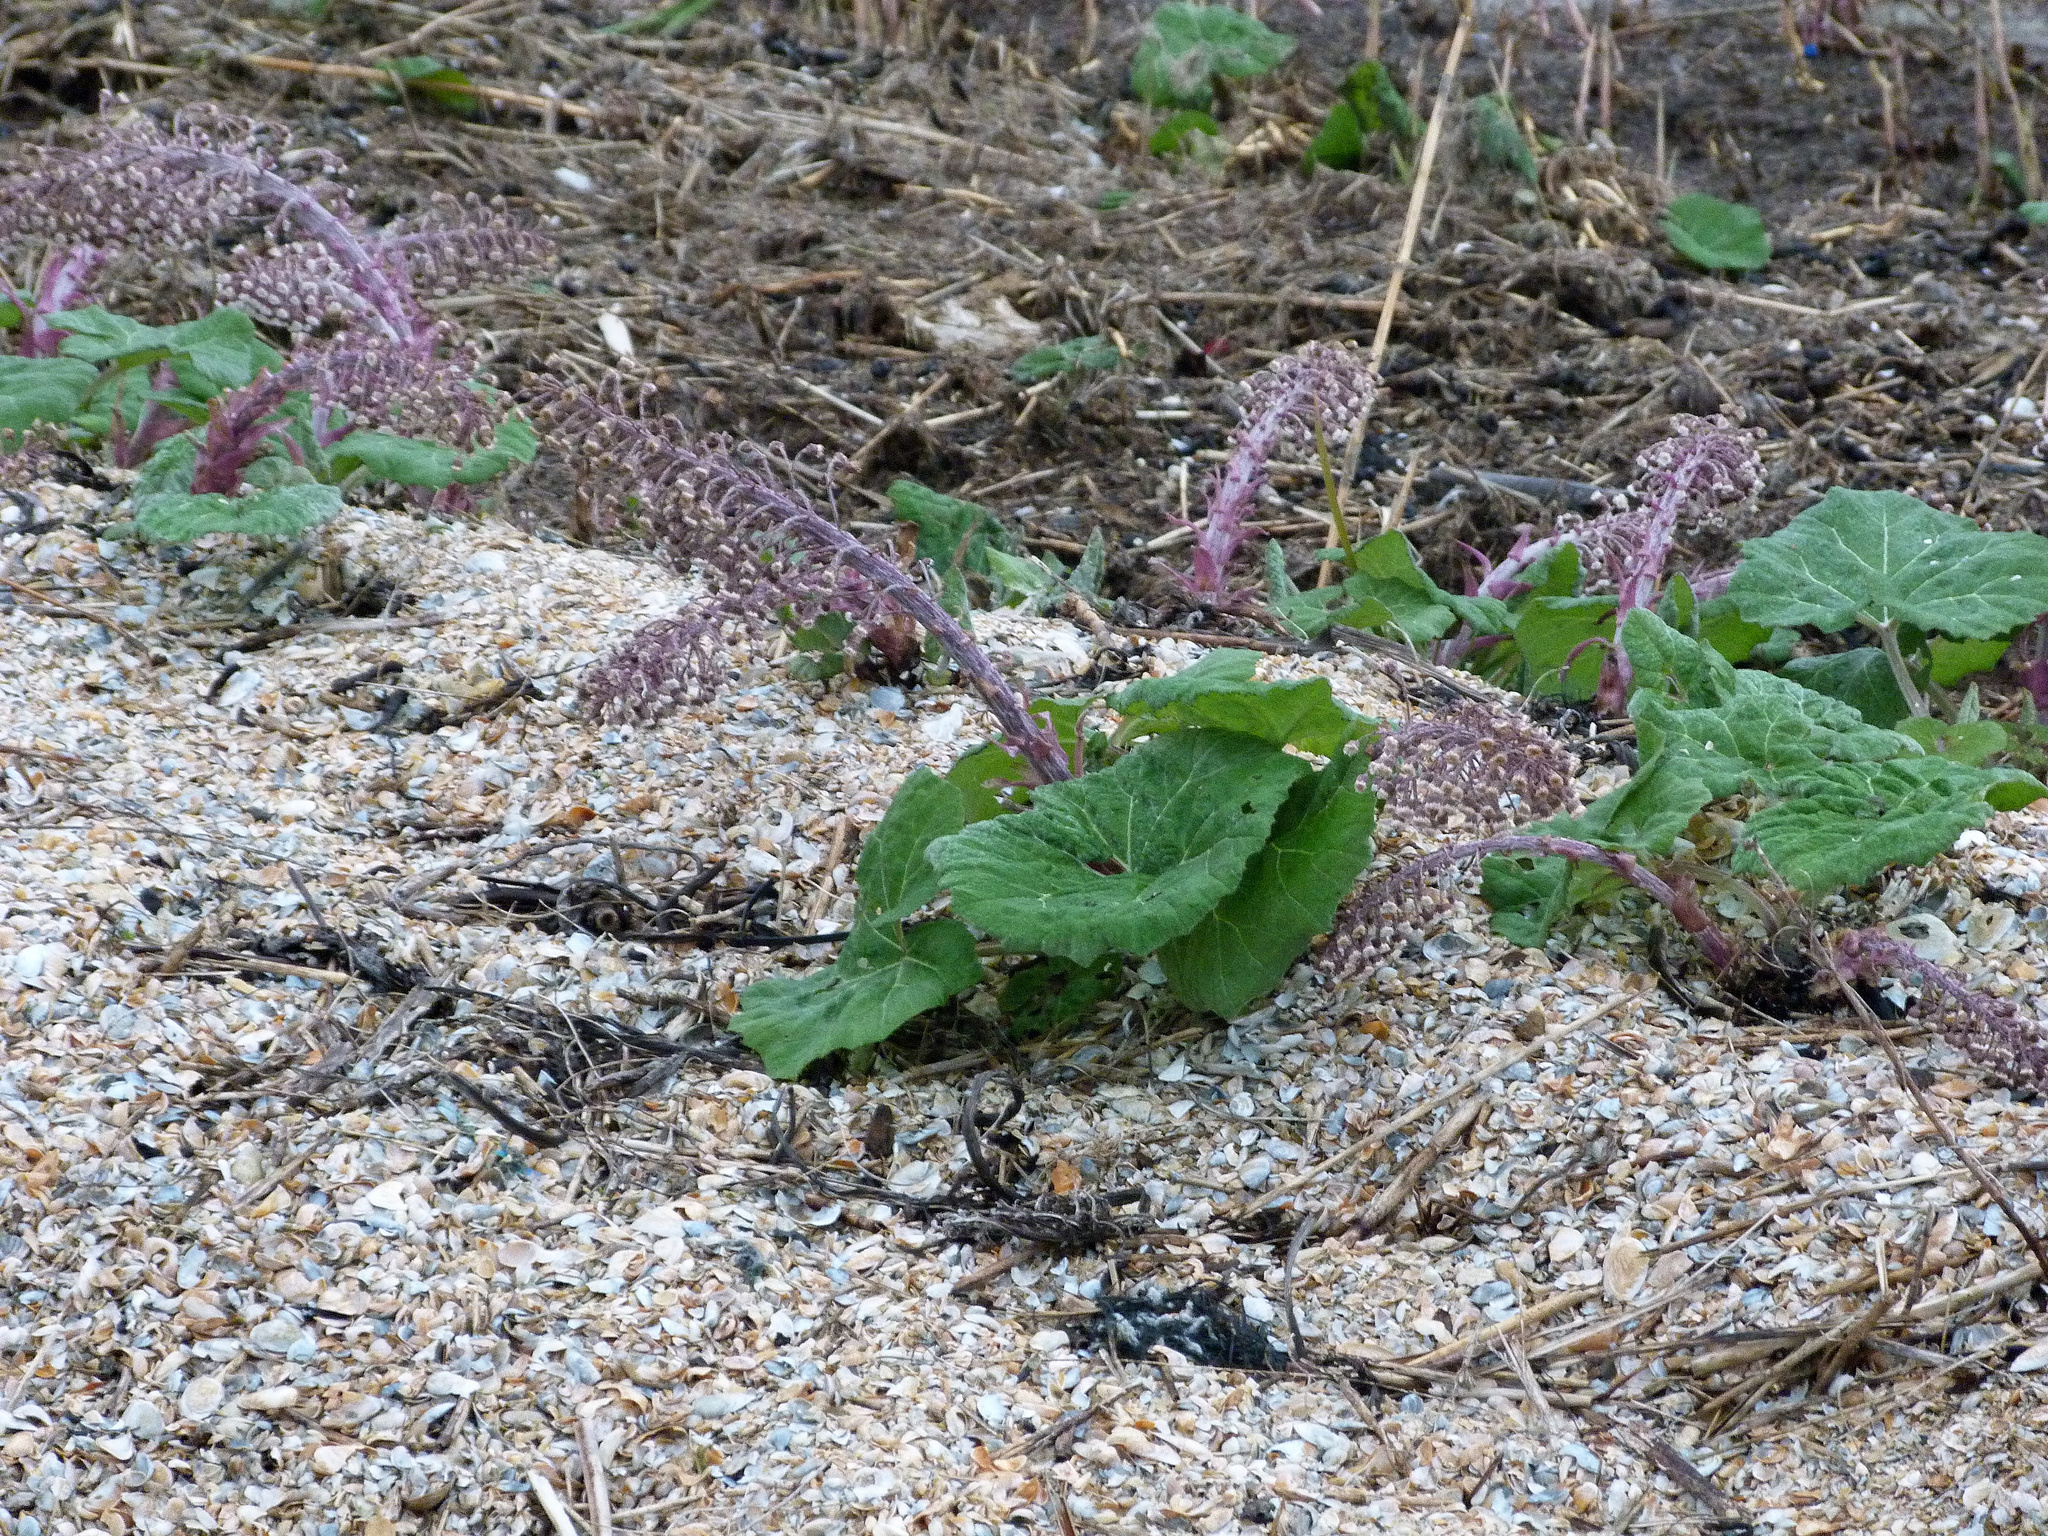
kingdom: Plantae
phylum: Tracheophyta
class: Magnoliopsida
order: Asterales
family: Asteraceae
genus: Petasites
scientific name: Petasites hybridus
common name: Butterbur
